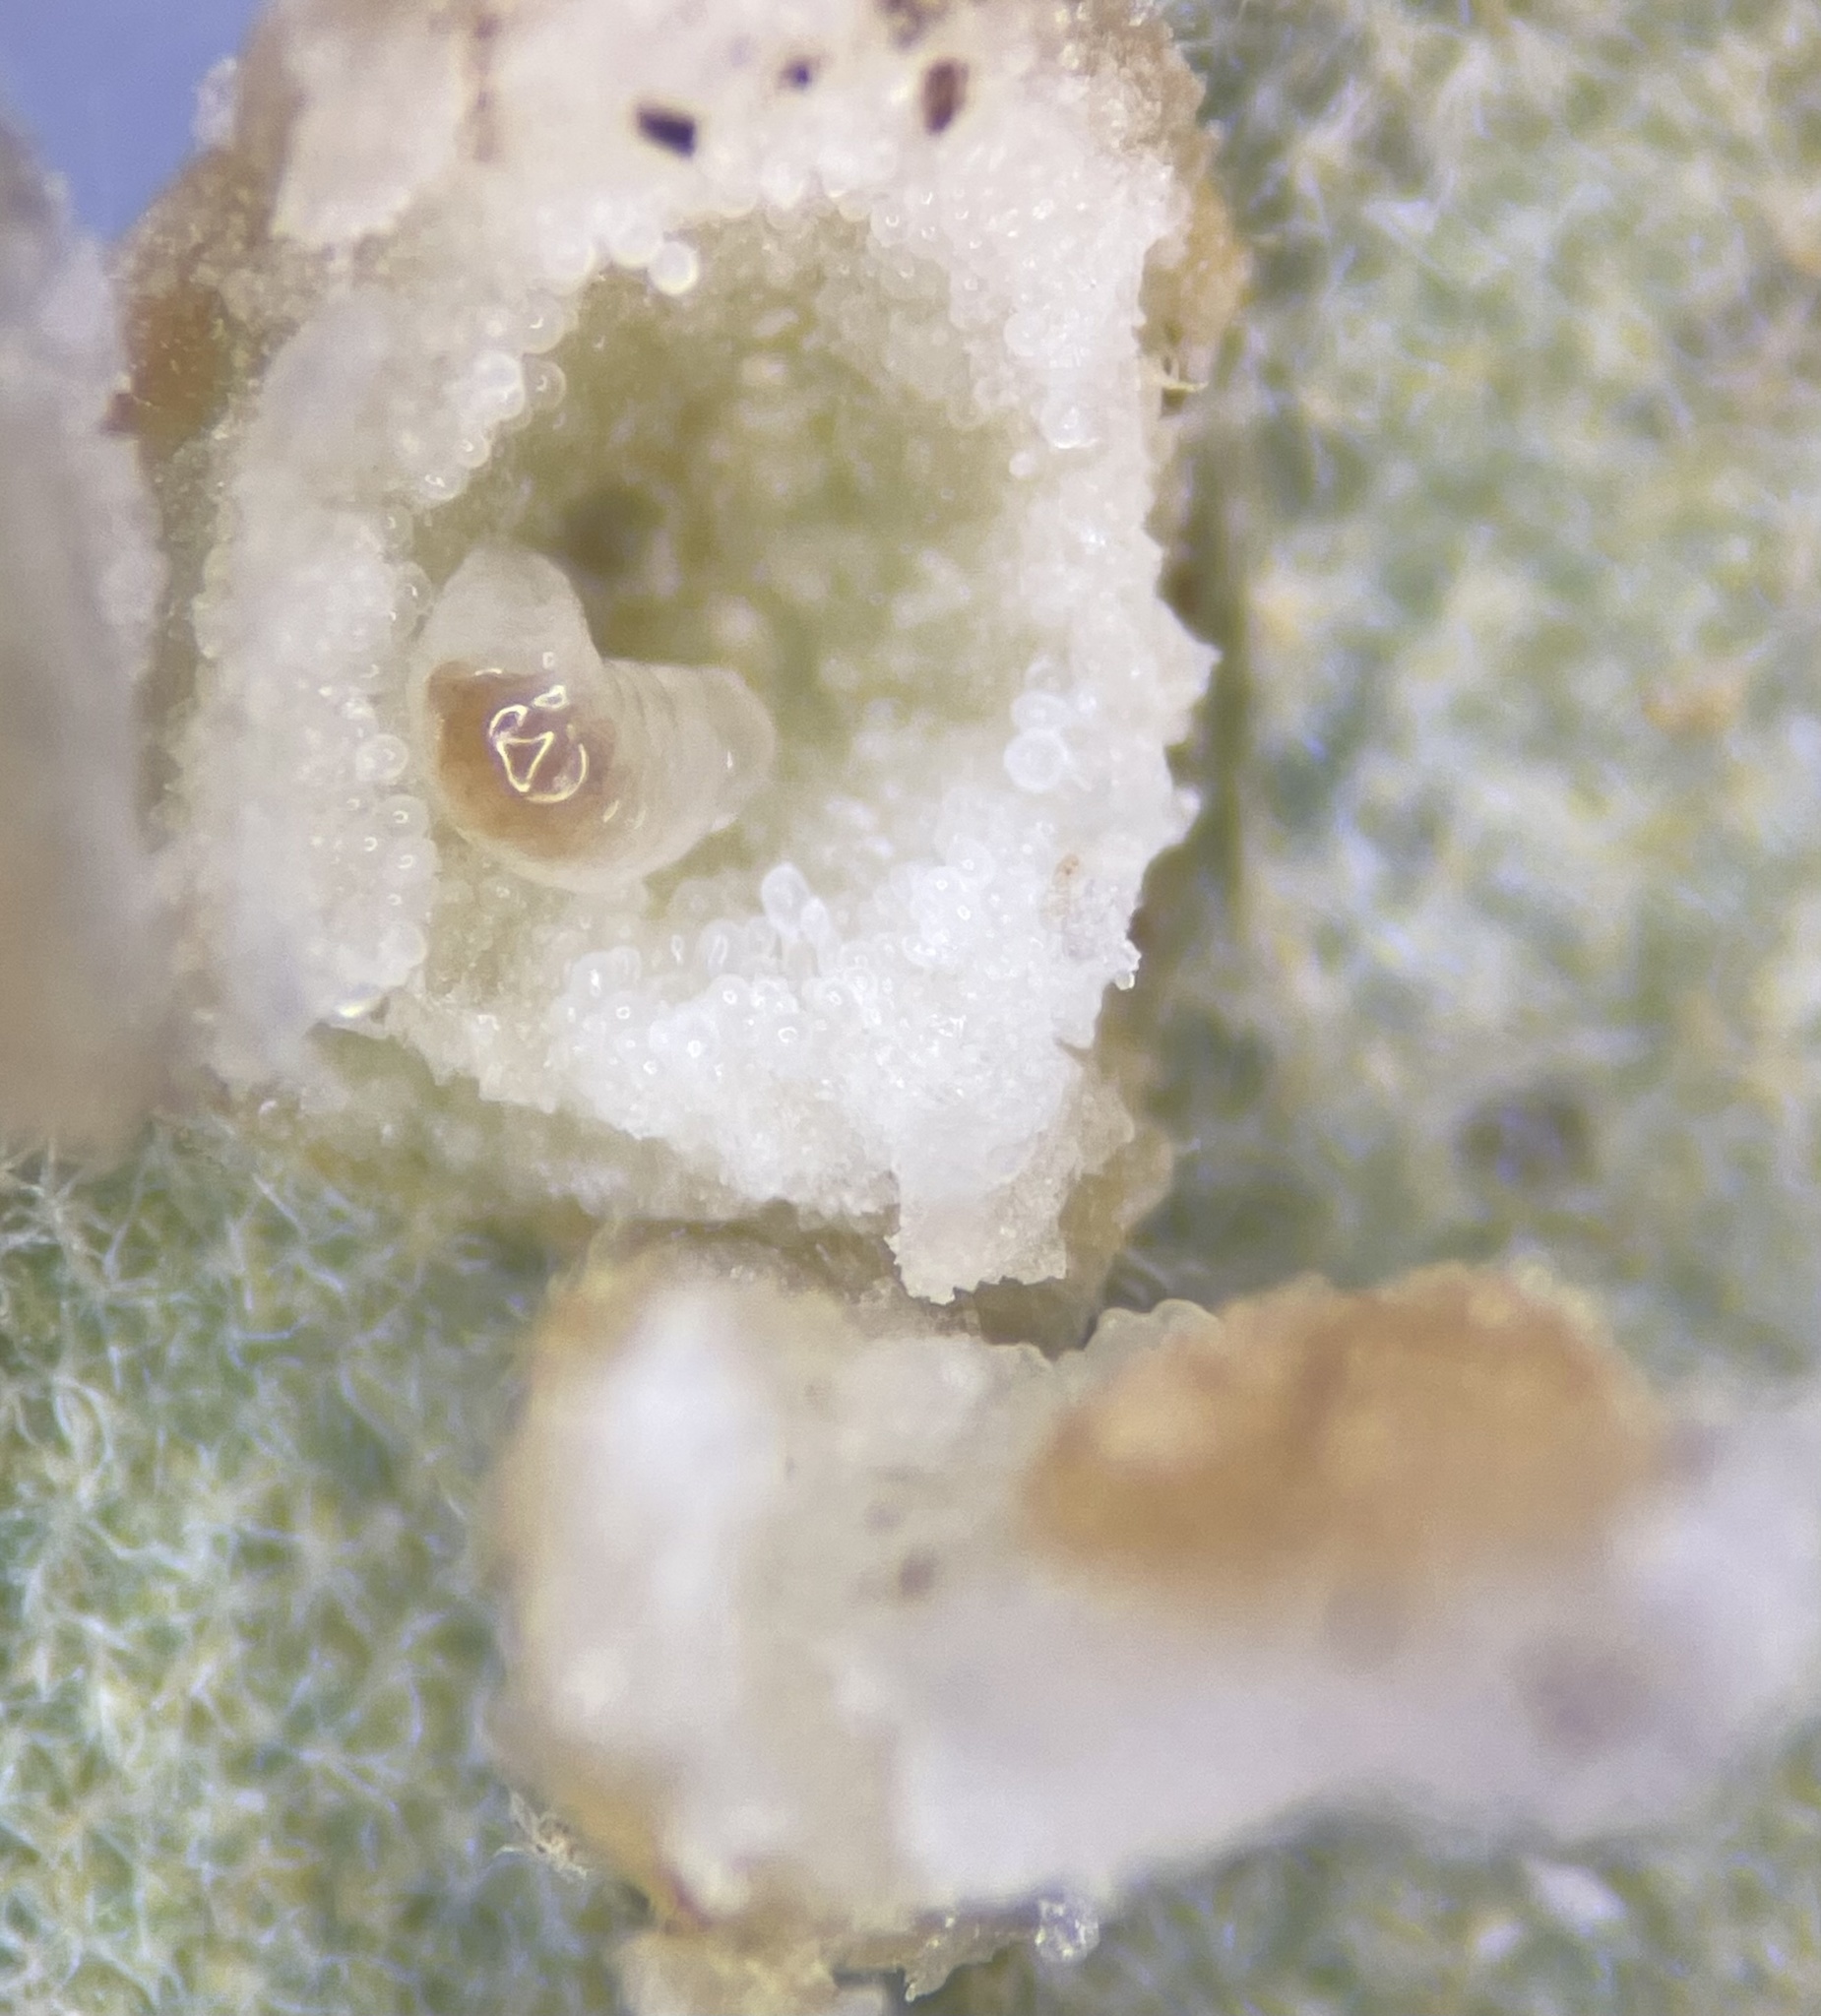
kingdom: Animalia
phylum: Arthropoda
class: Insecta
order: Diptera
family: Cecidomyiidae
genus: Polystepha
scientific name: Polystepha globosa
